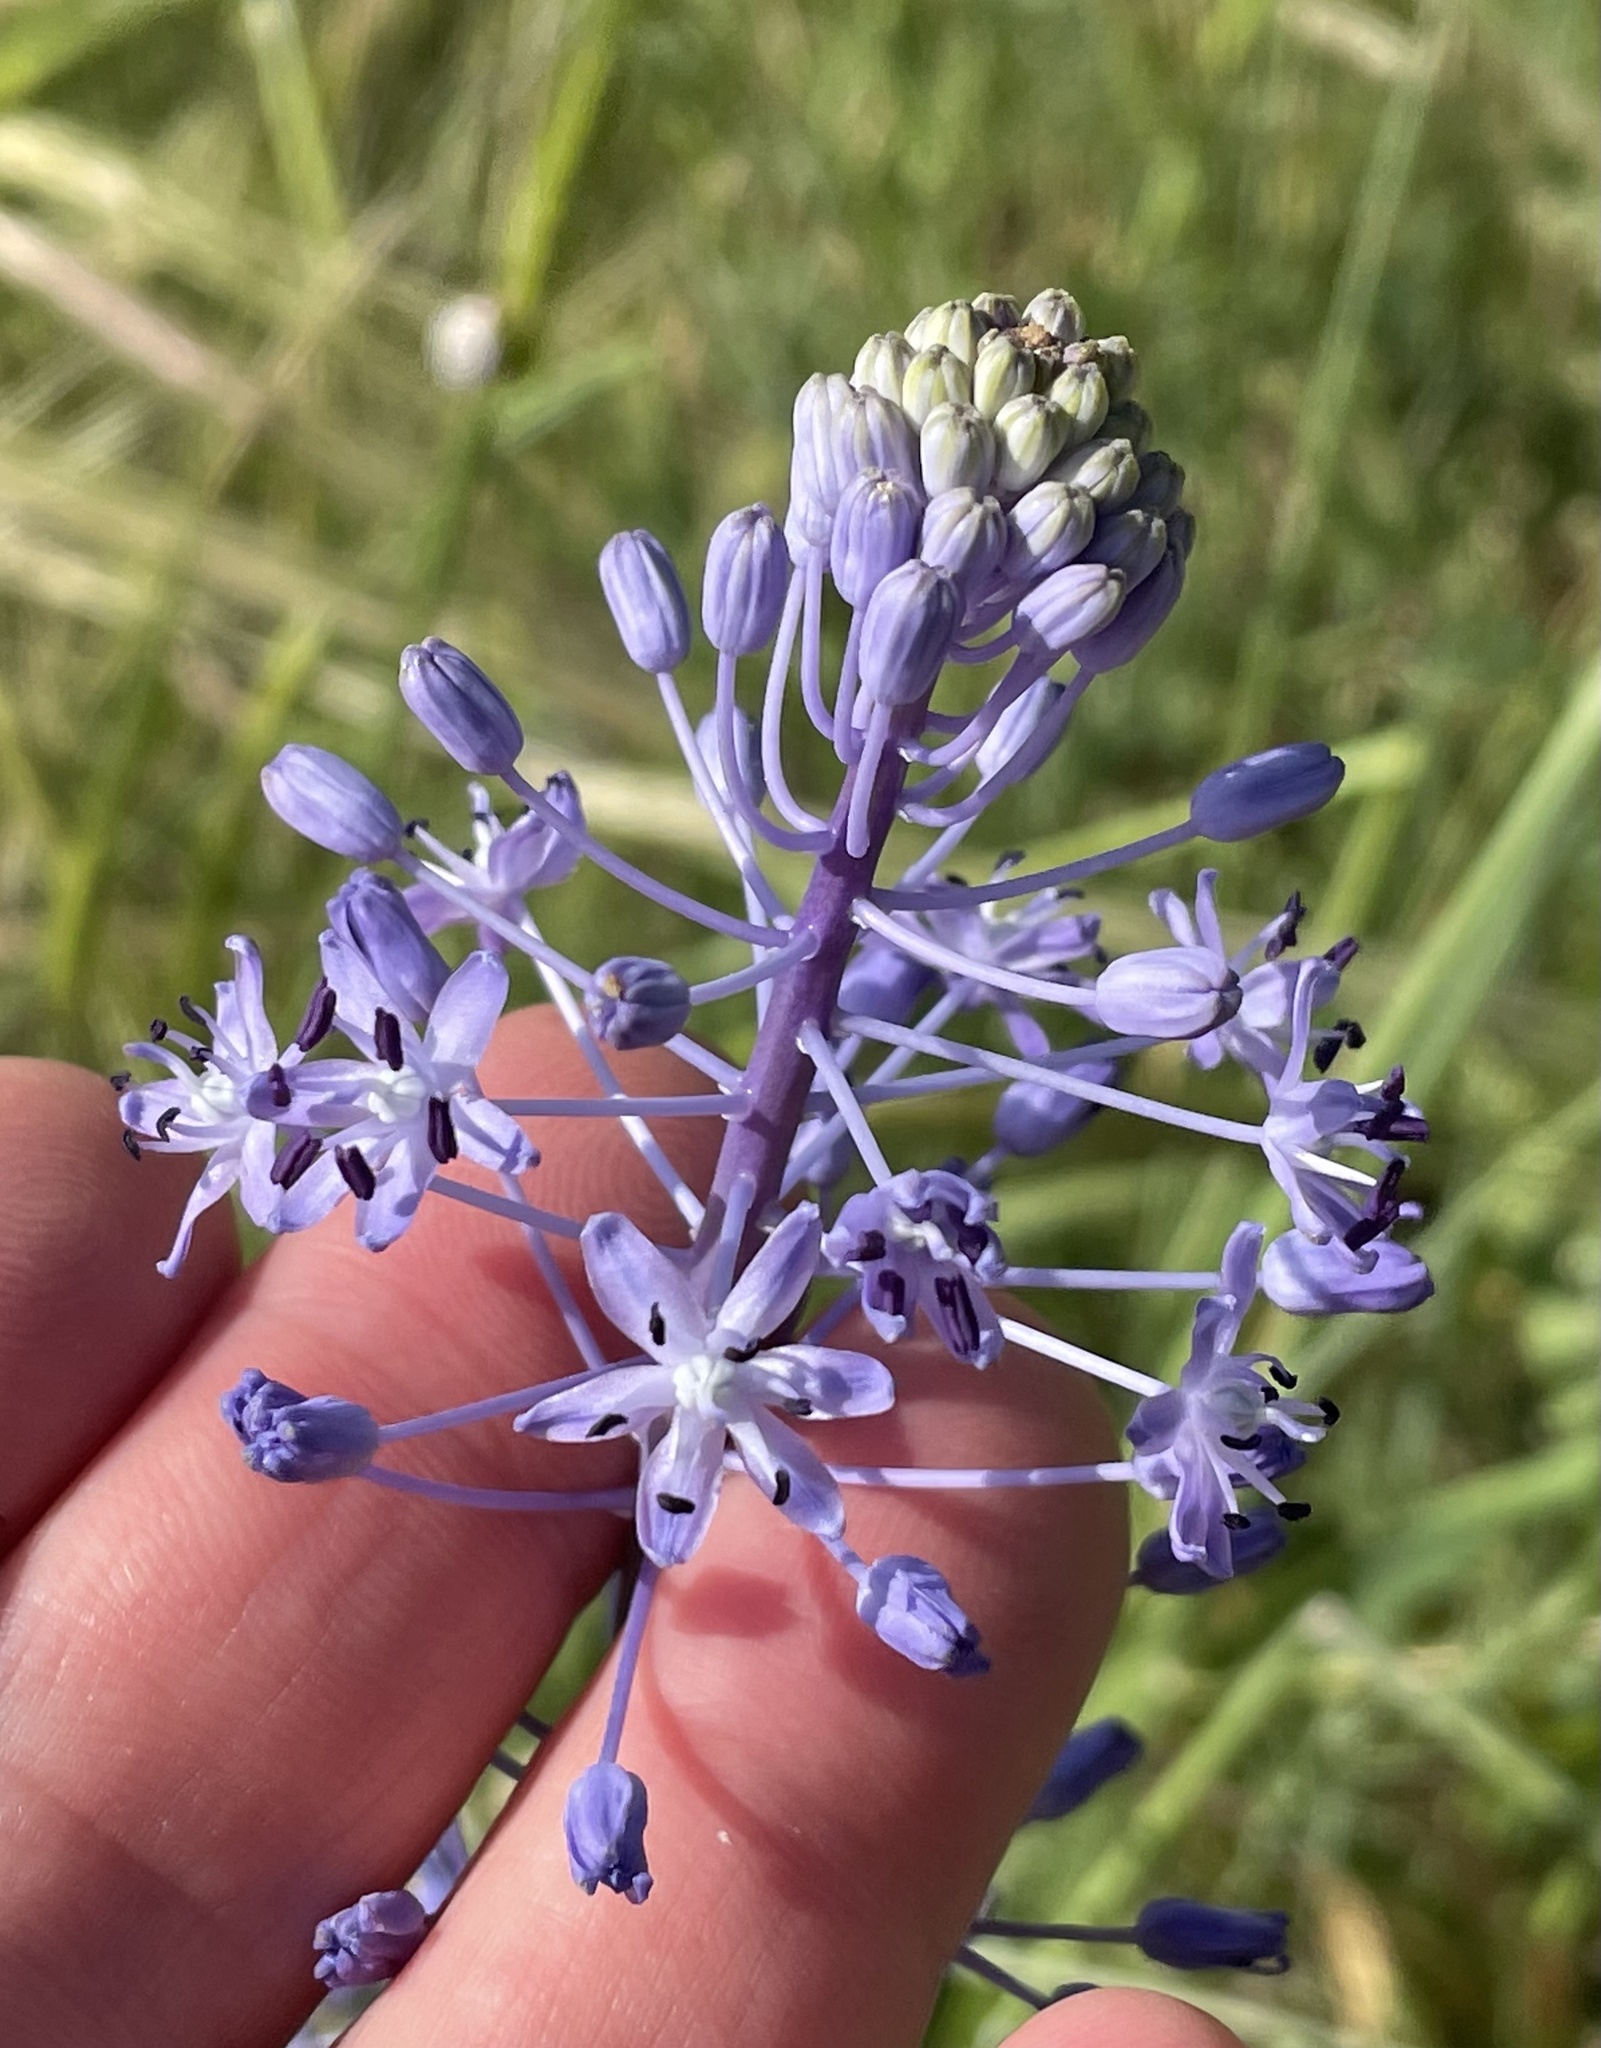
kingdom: Plantae
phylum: Tracheophyta
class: Liliopsida
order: Asparagales
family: Asparagaceae
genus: Scilla
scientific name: Scilla hyacinthoides
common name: Scilla
